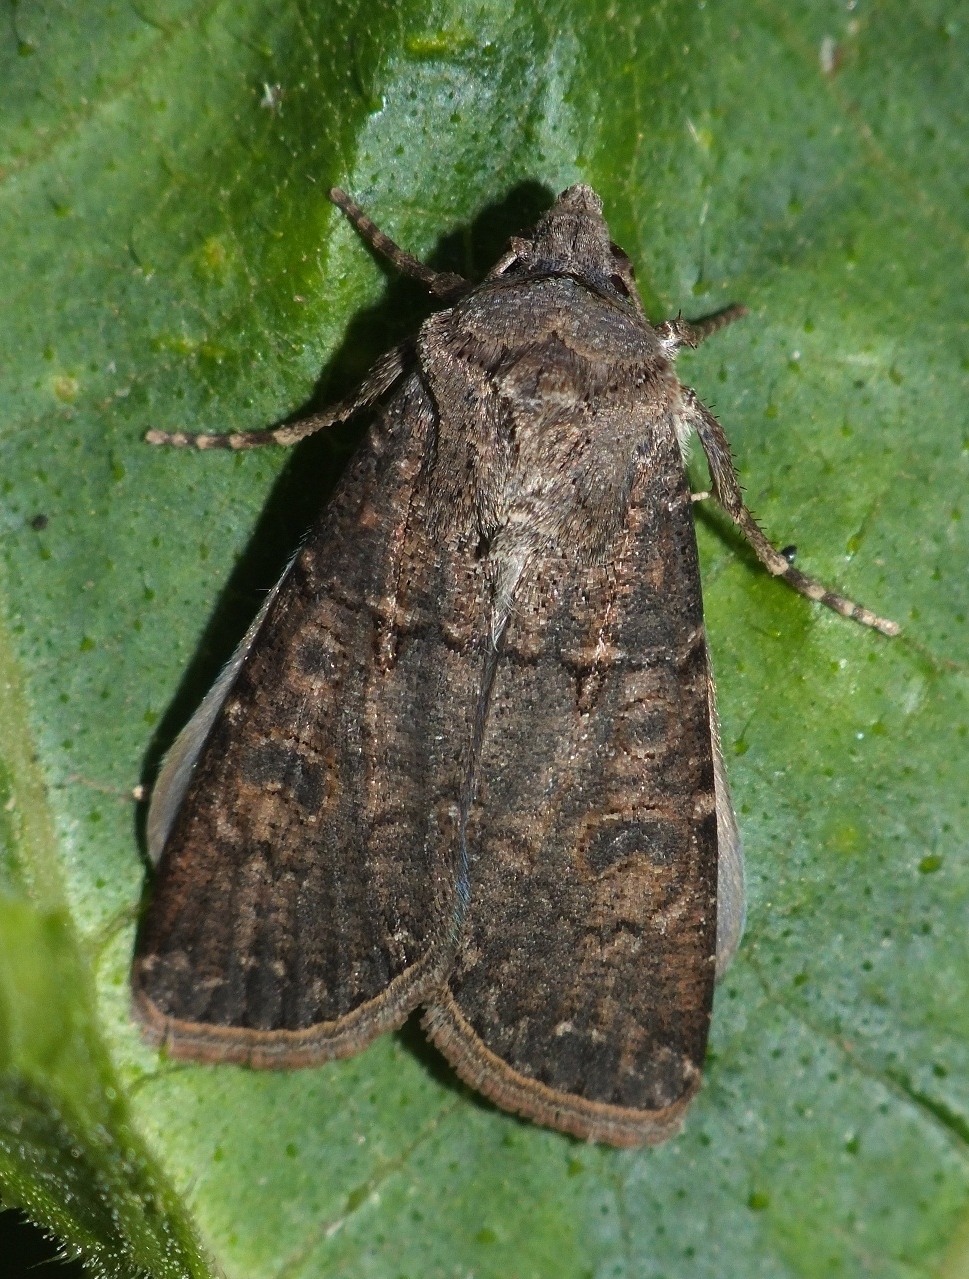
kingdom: Animalia
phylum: Arthropoda
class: Insecta
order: Lepidoptera
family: Noctuidae
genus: Agrotis
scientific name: Agrotis segetum
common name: Turnip moth
